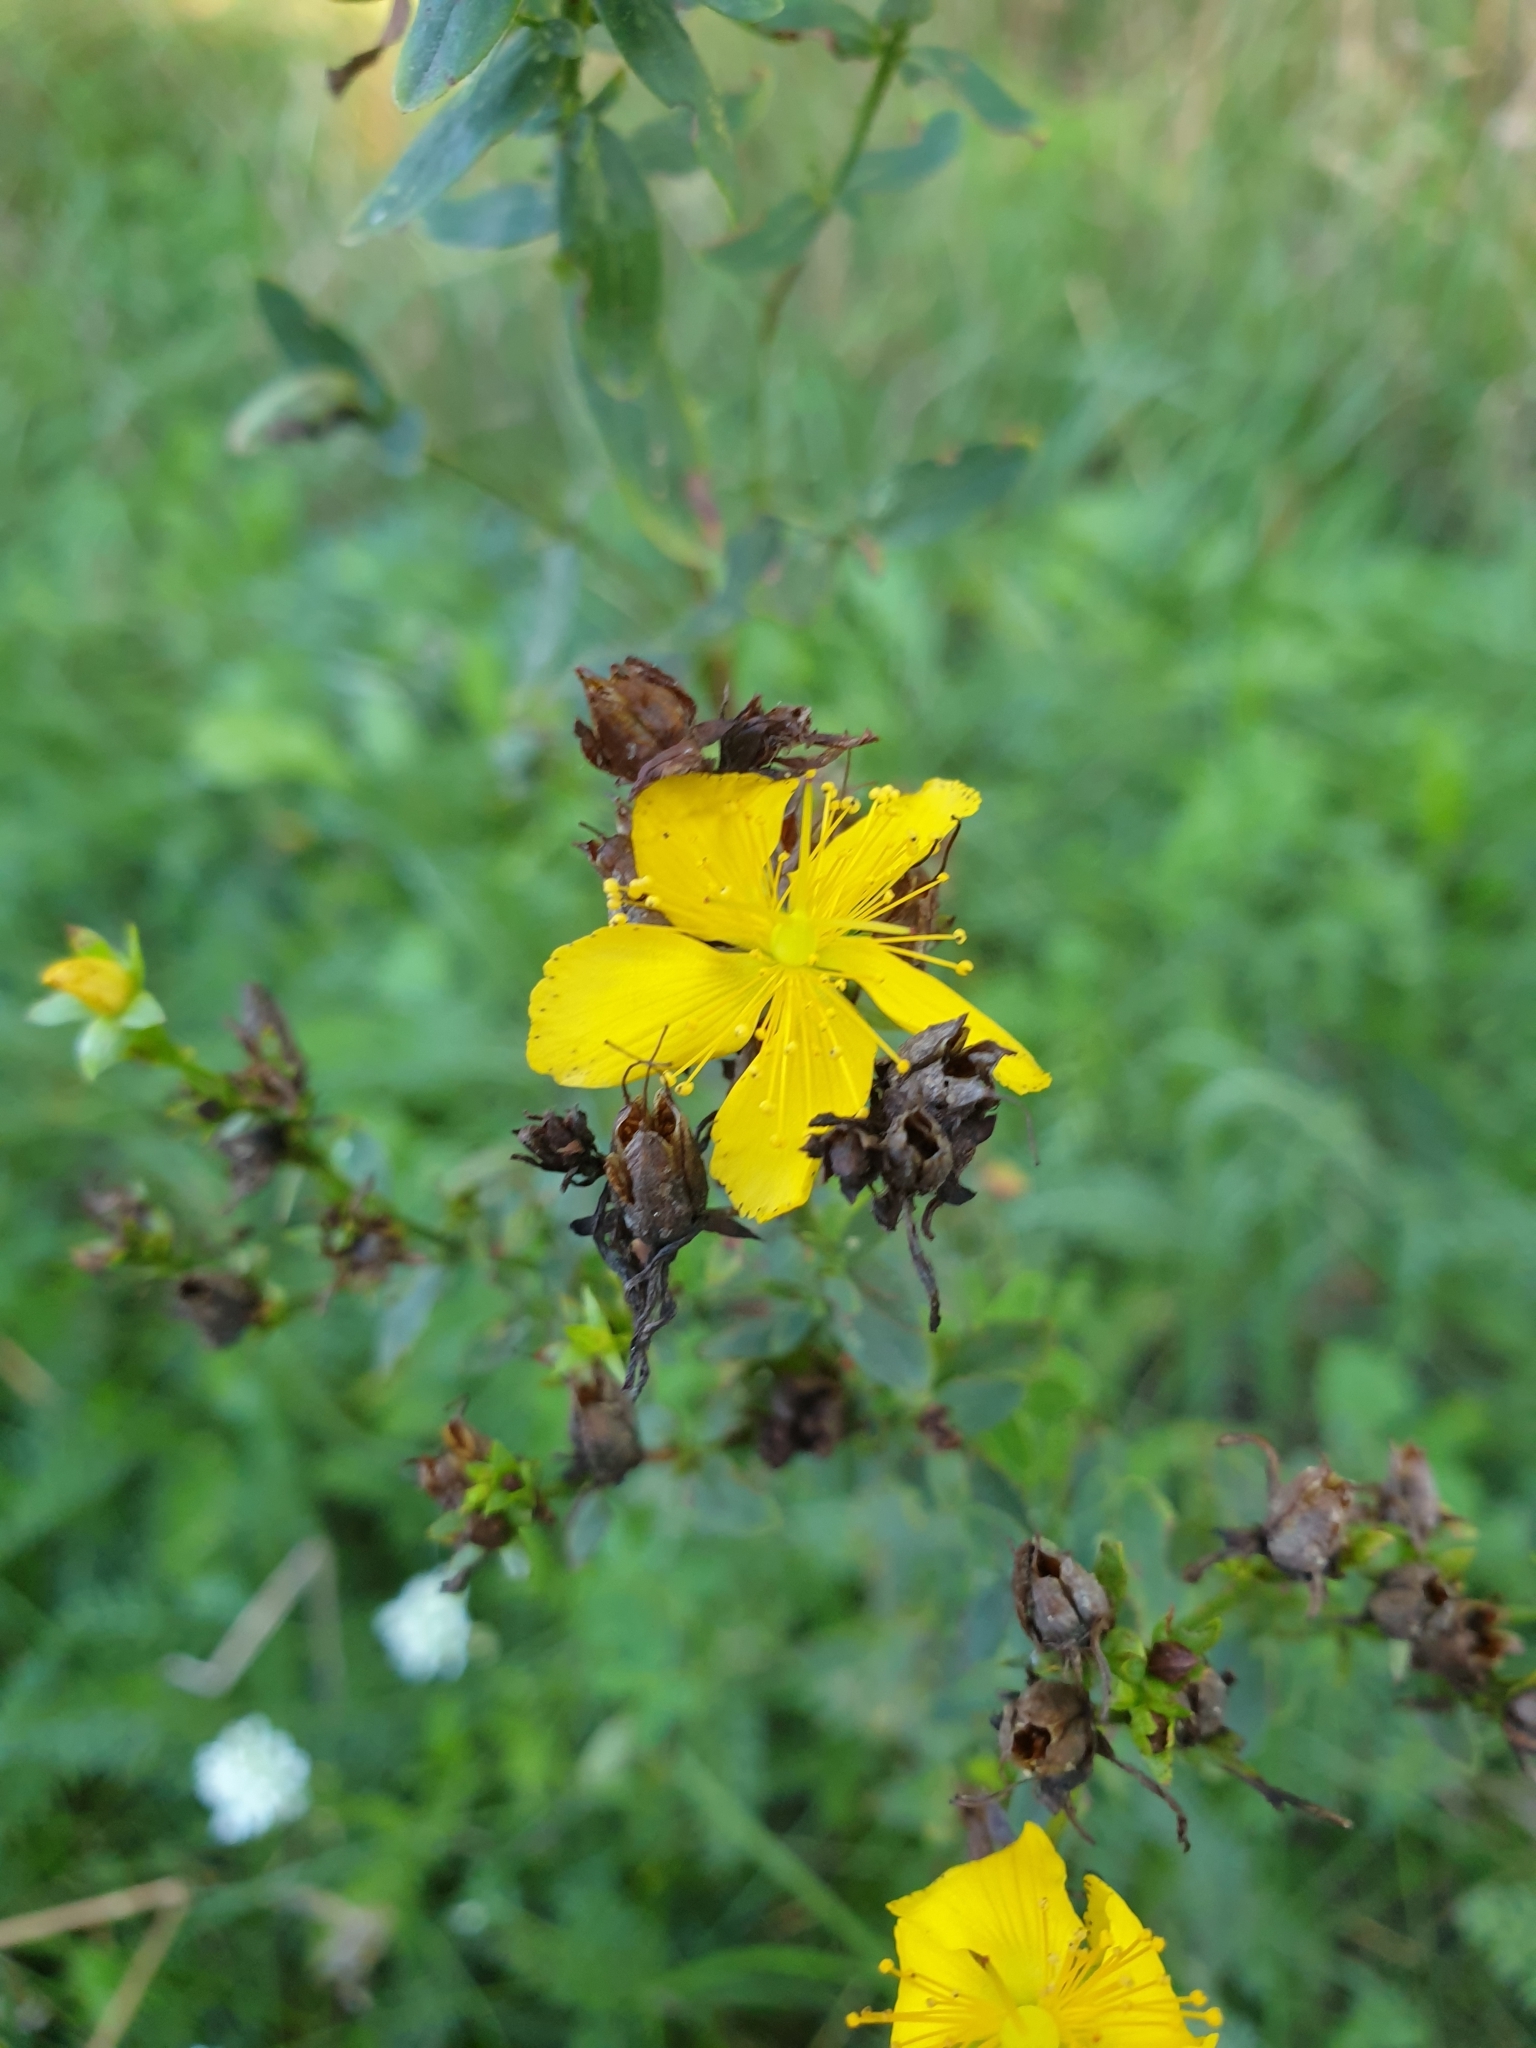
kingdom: Plantae
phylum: Tracheophyta
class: Magnoliopsida
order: Malpighiales
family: Hypericaceae
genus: Hypericum
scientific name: Hypericum perforatum
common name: Common st. johnswort
